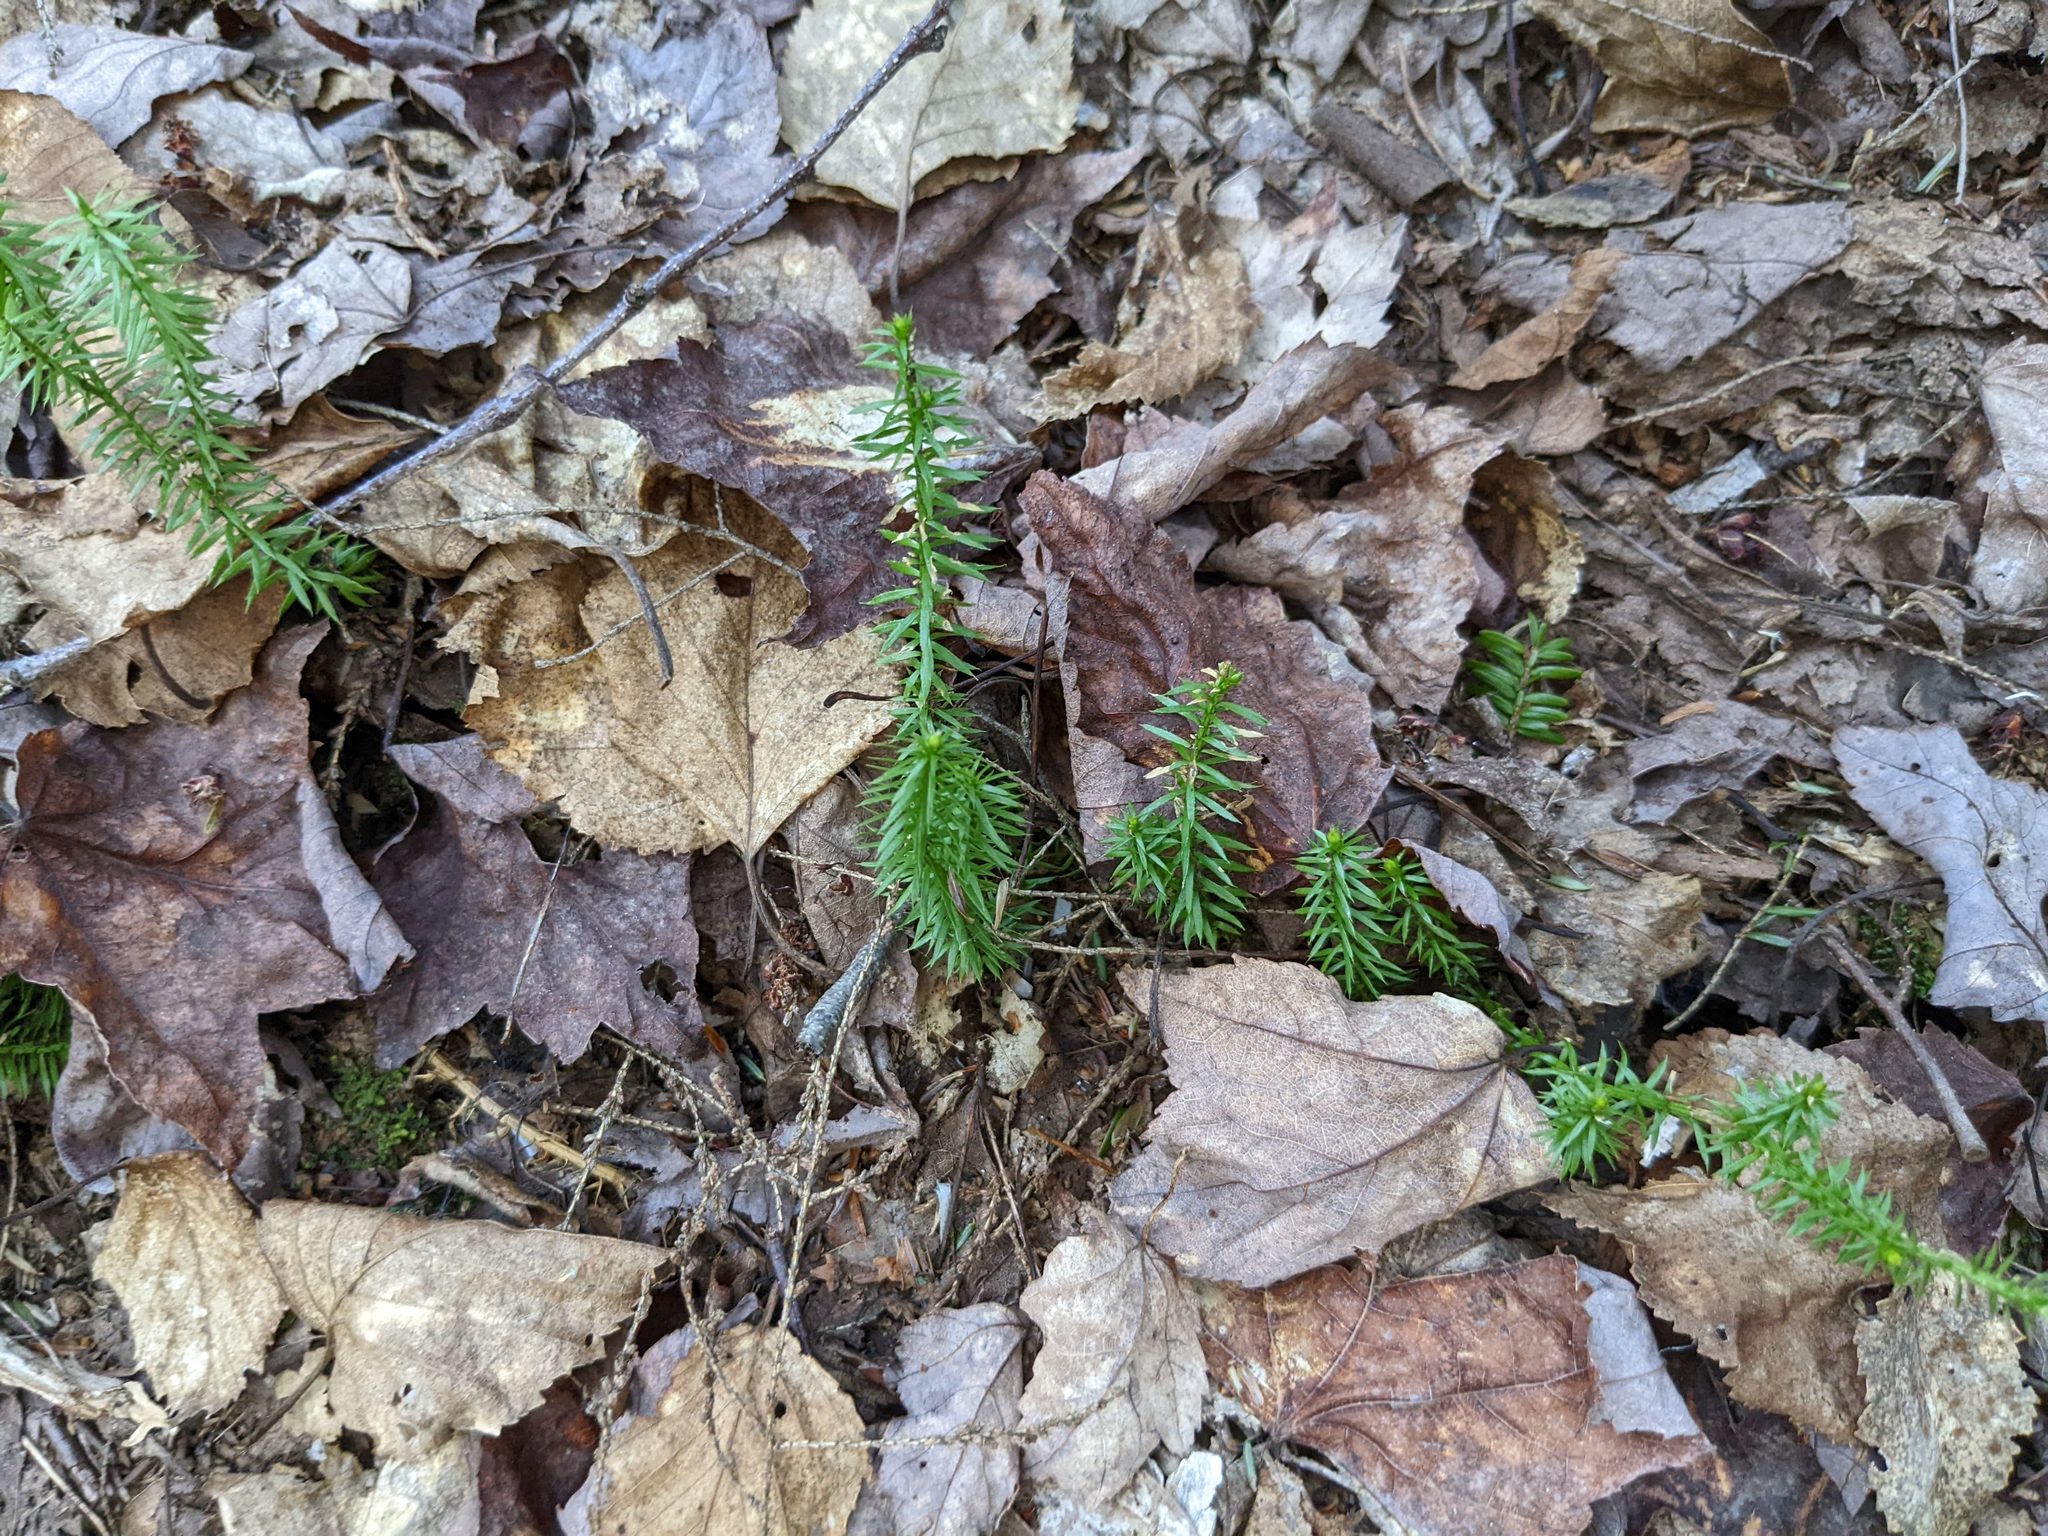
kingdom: Plantae
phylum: Tracheophyta
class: Lycopodiopsida
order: Lycopodiales
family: Lycopodiaceae
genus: Spinulum
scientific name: Spinulum annotinum
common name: Interrupted club-moss
